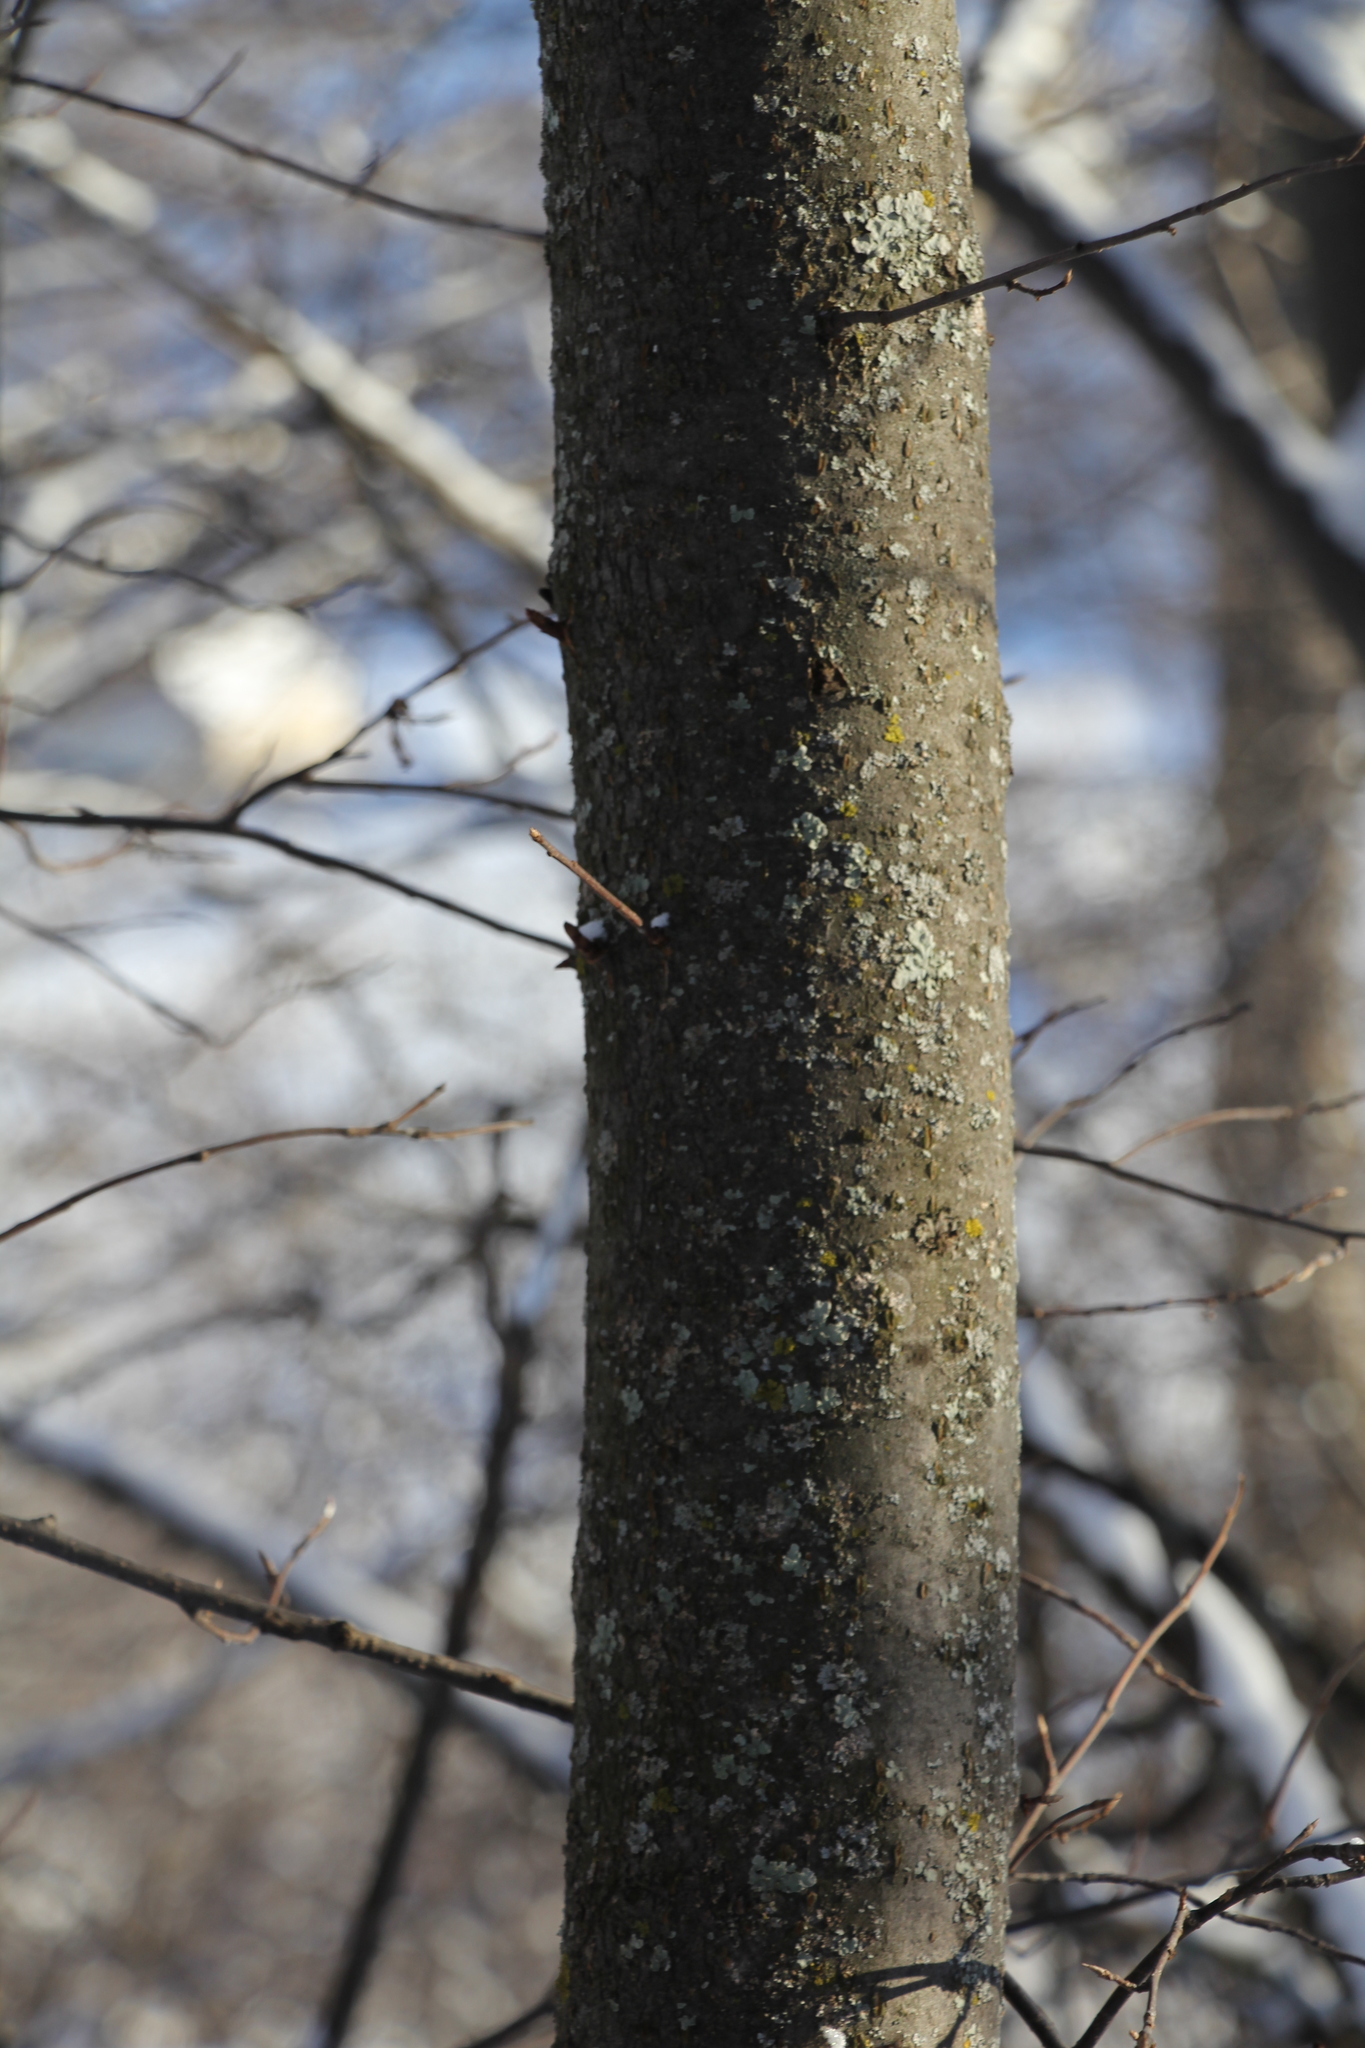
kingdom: Plantae
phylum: Tracheophyta
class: Magnoliopsida
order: Rosales
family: Rosaceae
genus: Prunus
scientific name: Prunus padus
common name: Bird cherry
